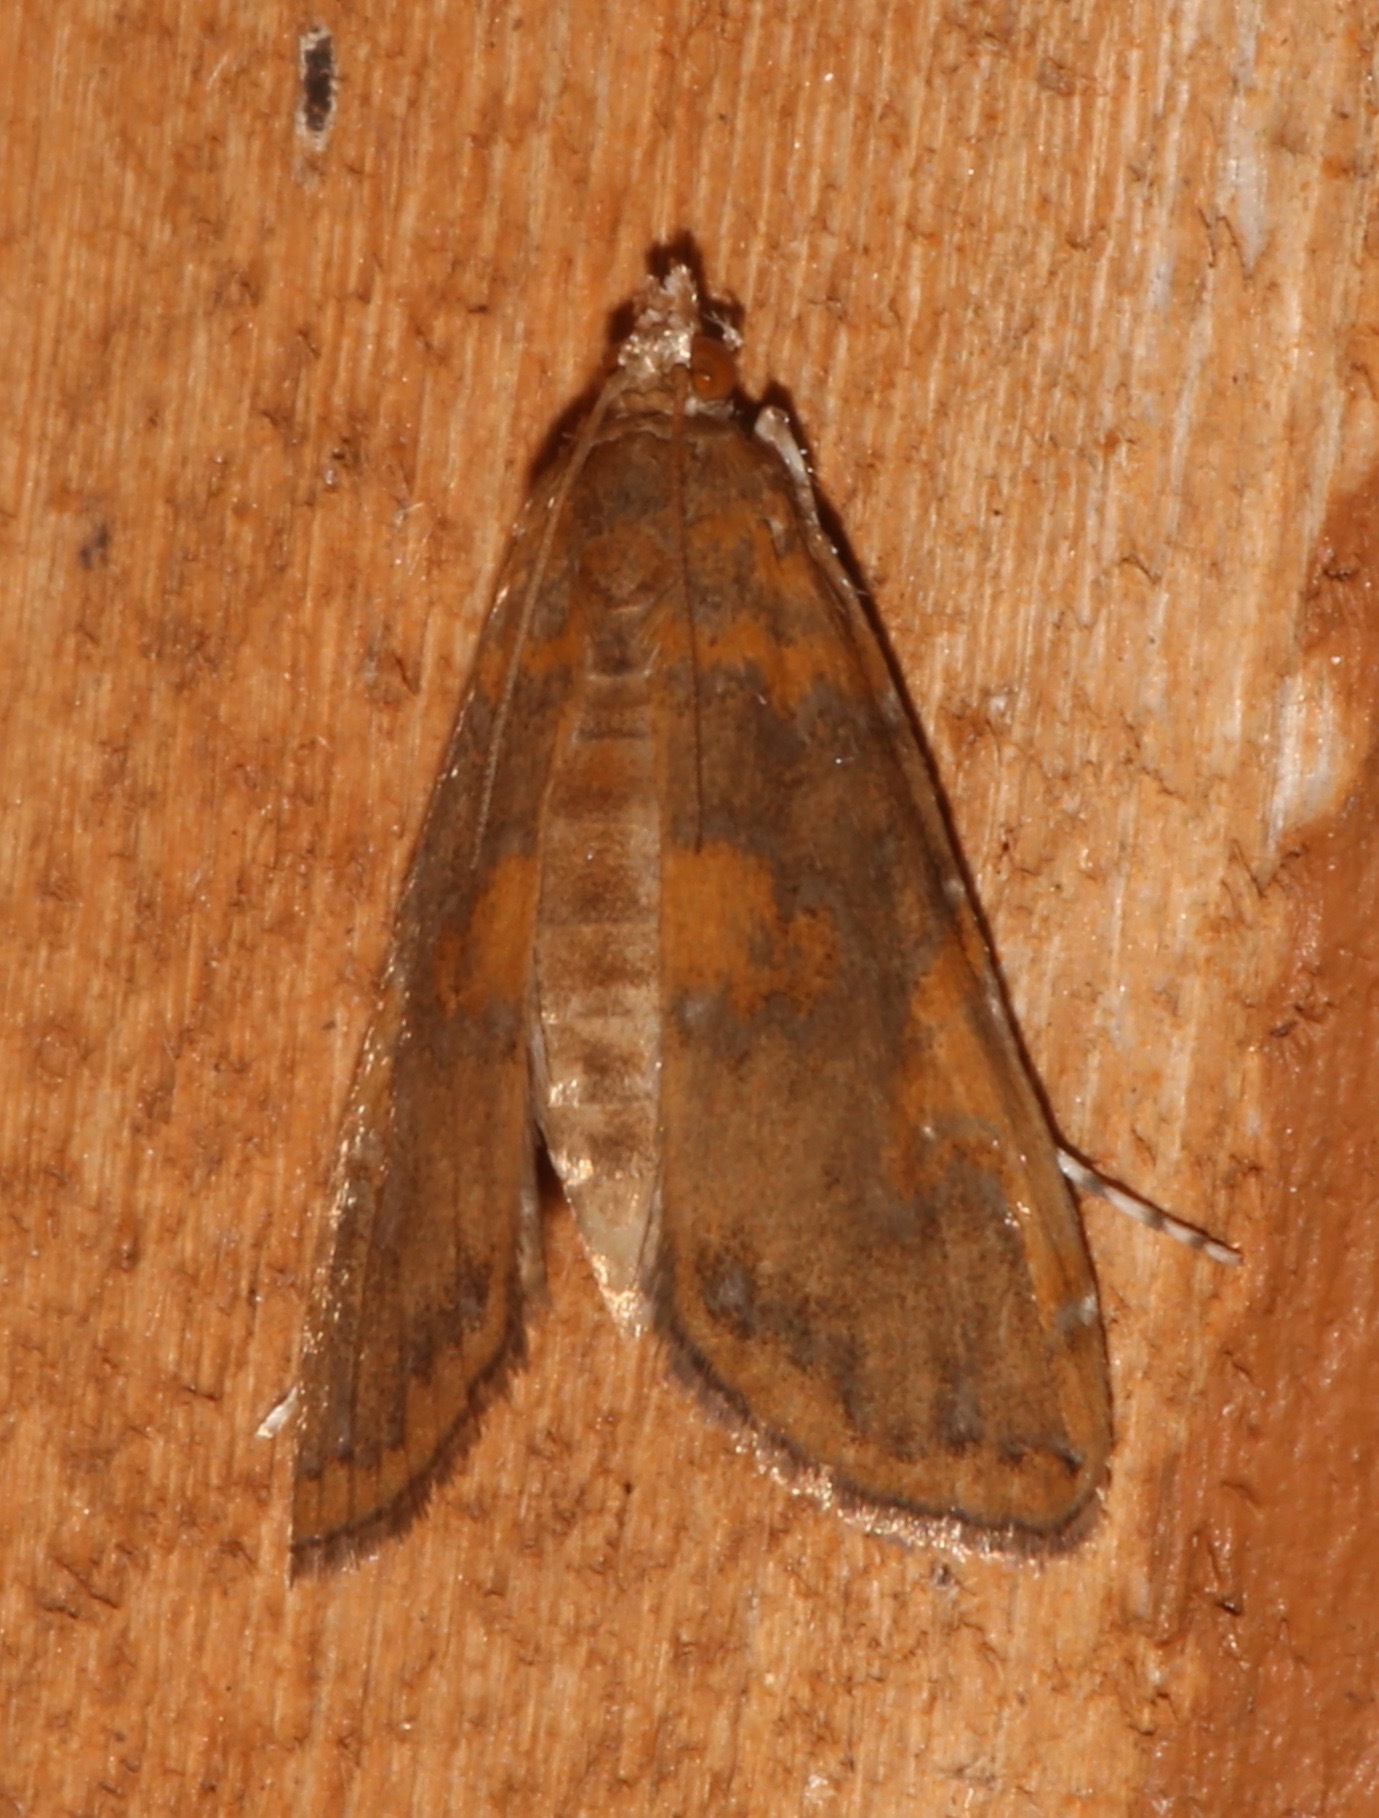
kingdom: Animalia
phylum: Arthropoda
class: Insecta
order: Lepidoptera
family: Crambidae
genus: Elophila
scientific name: Elophila gyralis
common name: Waterlily borer moth
